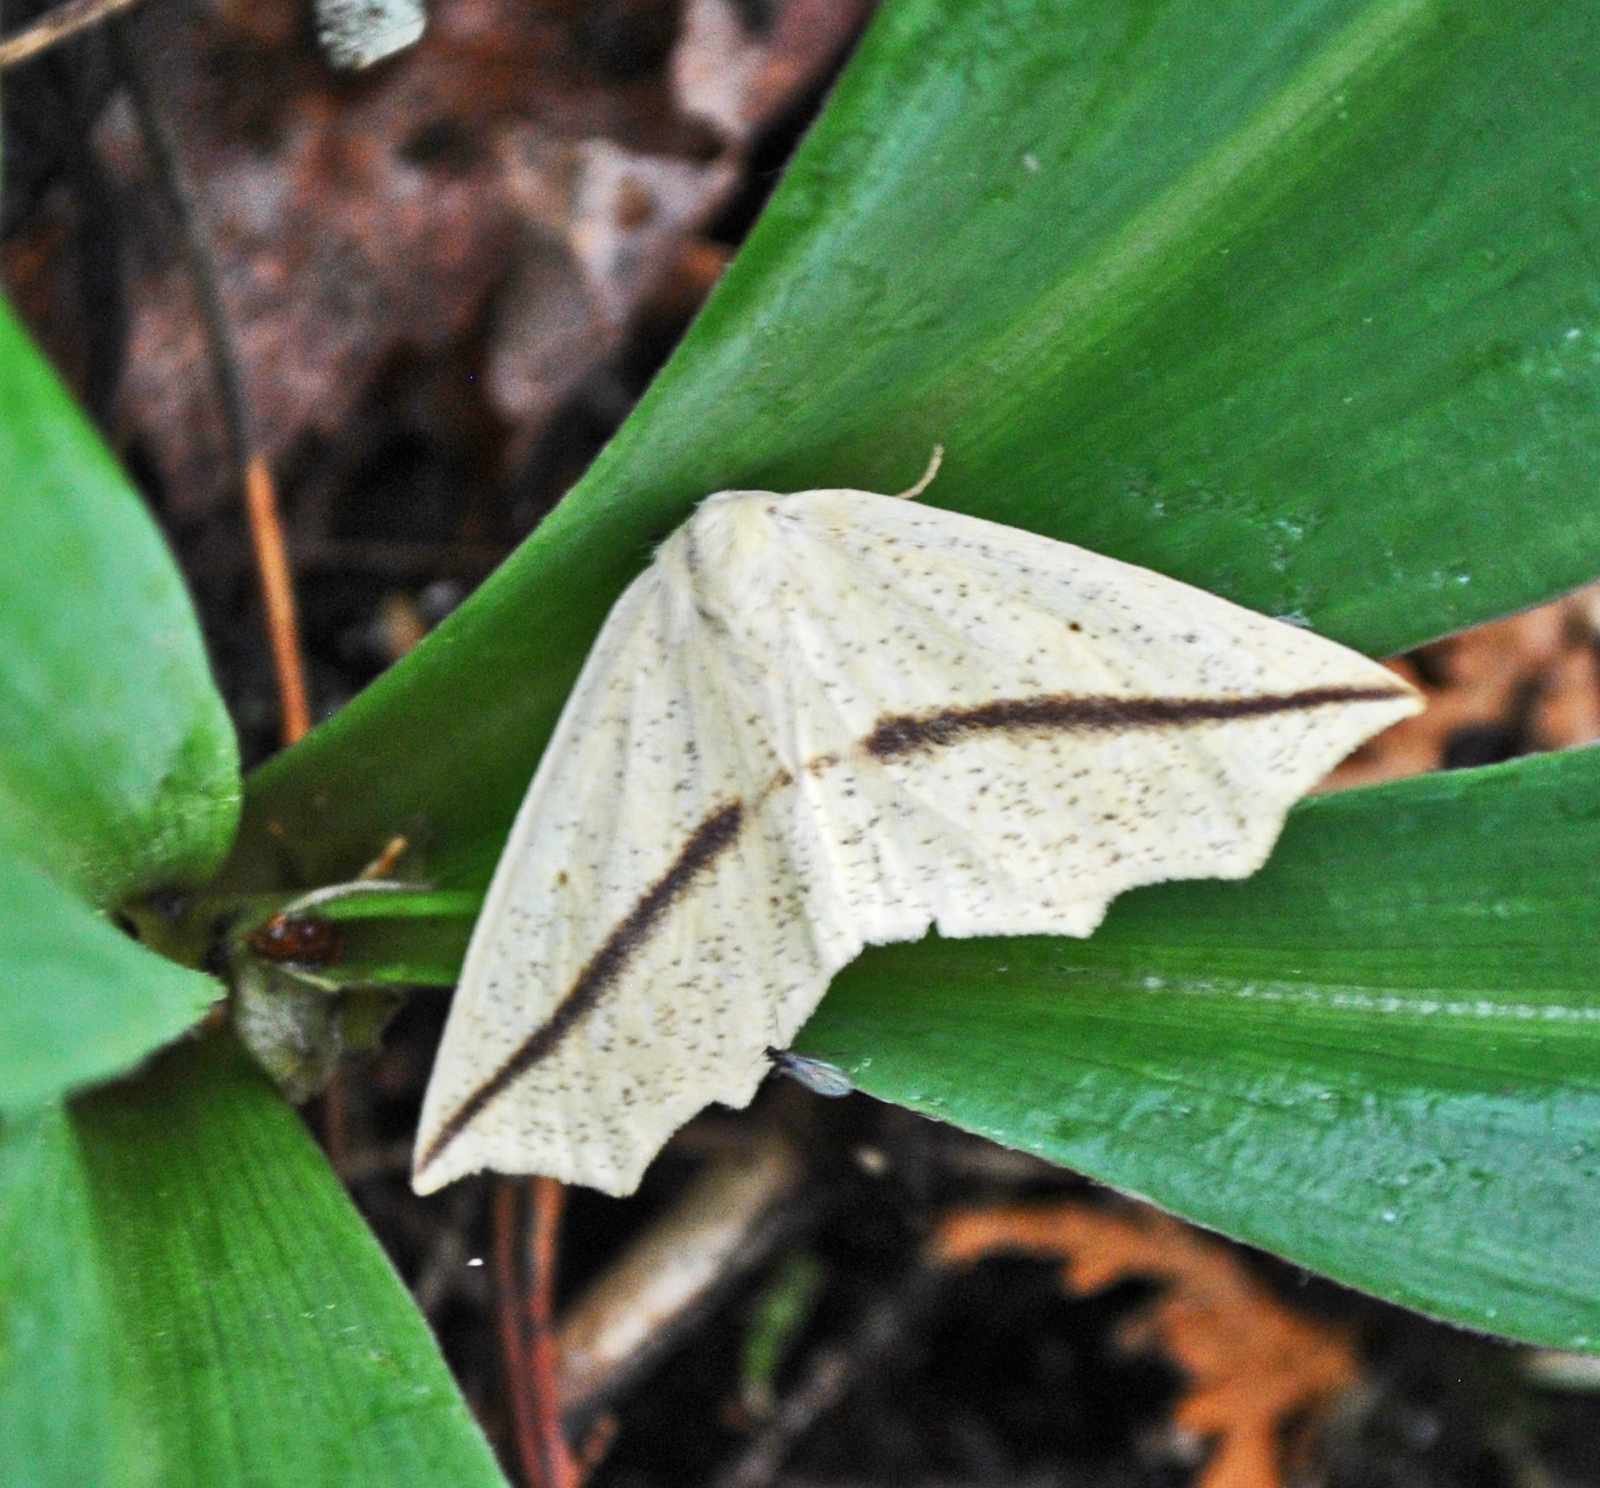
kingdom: Animalia
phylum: Arthropoda
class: Insecta
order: Lepidoptera
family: Geometridae
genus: Tetracis
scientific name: Tetracis crocallata
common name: Yellow slant-line
